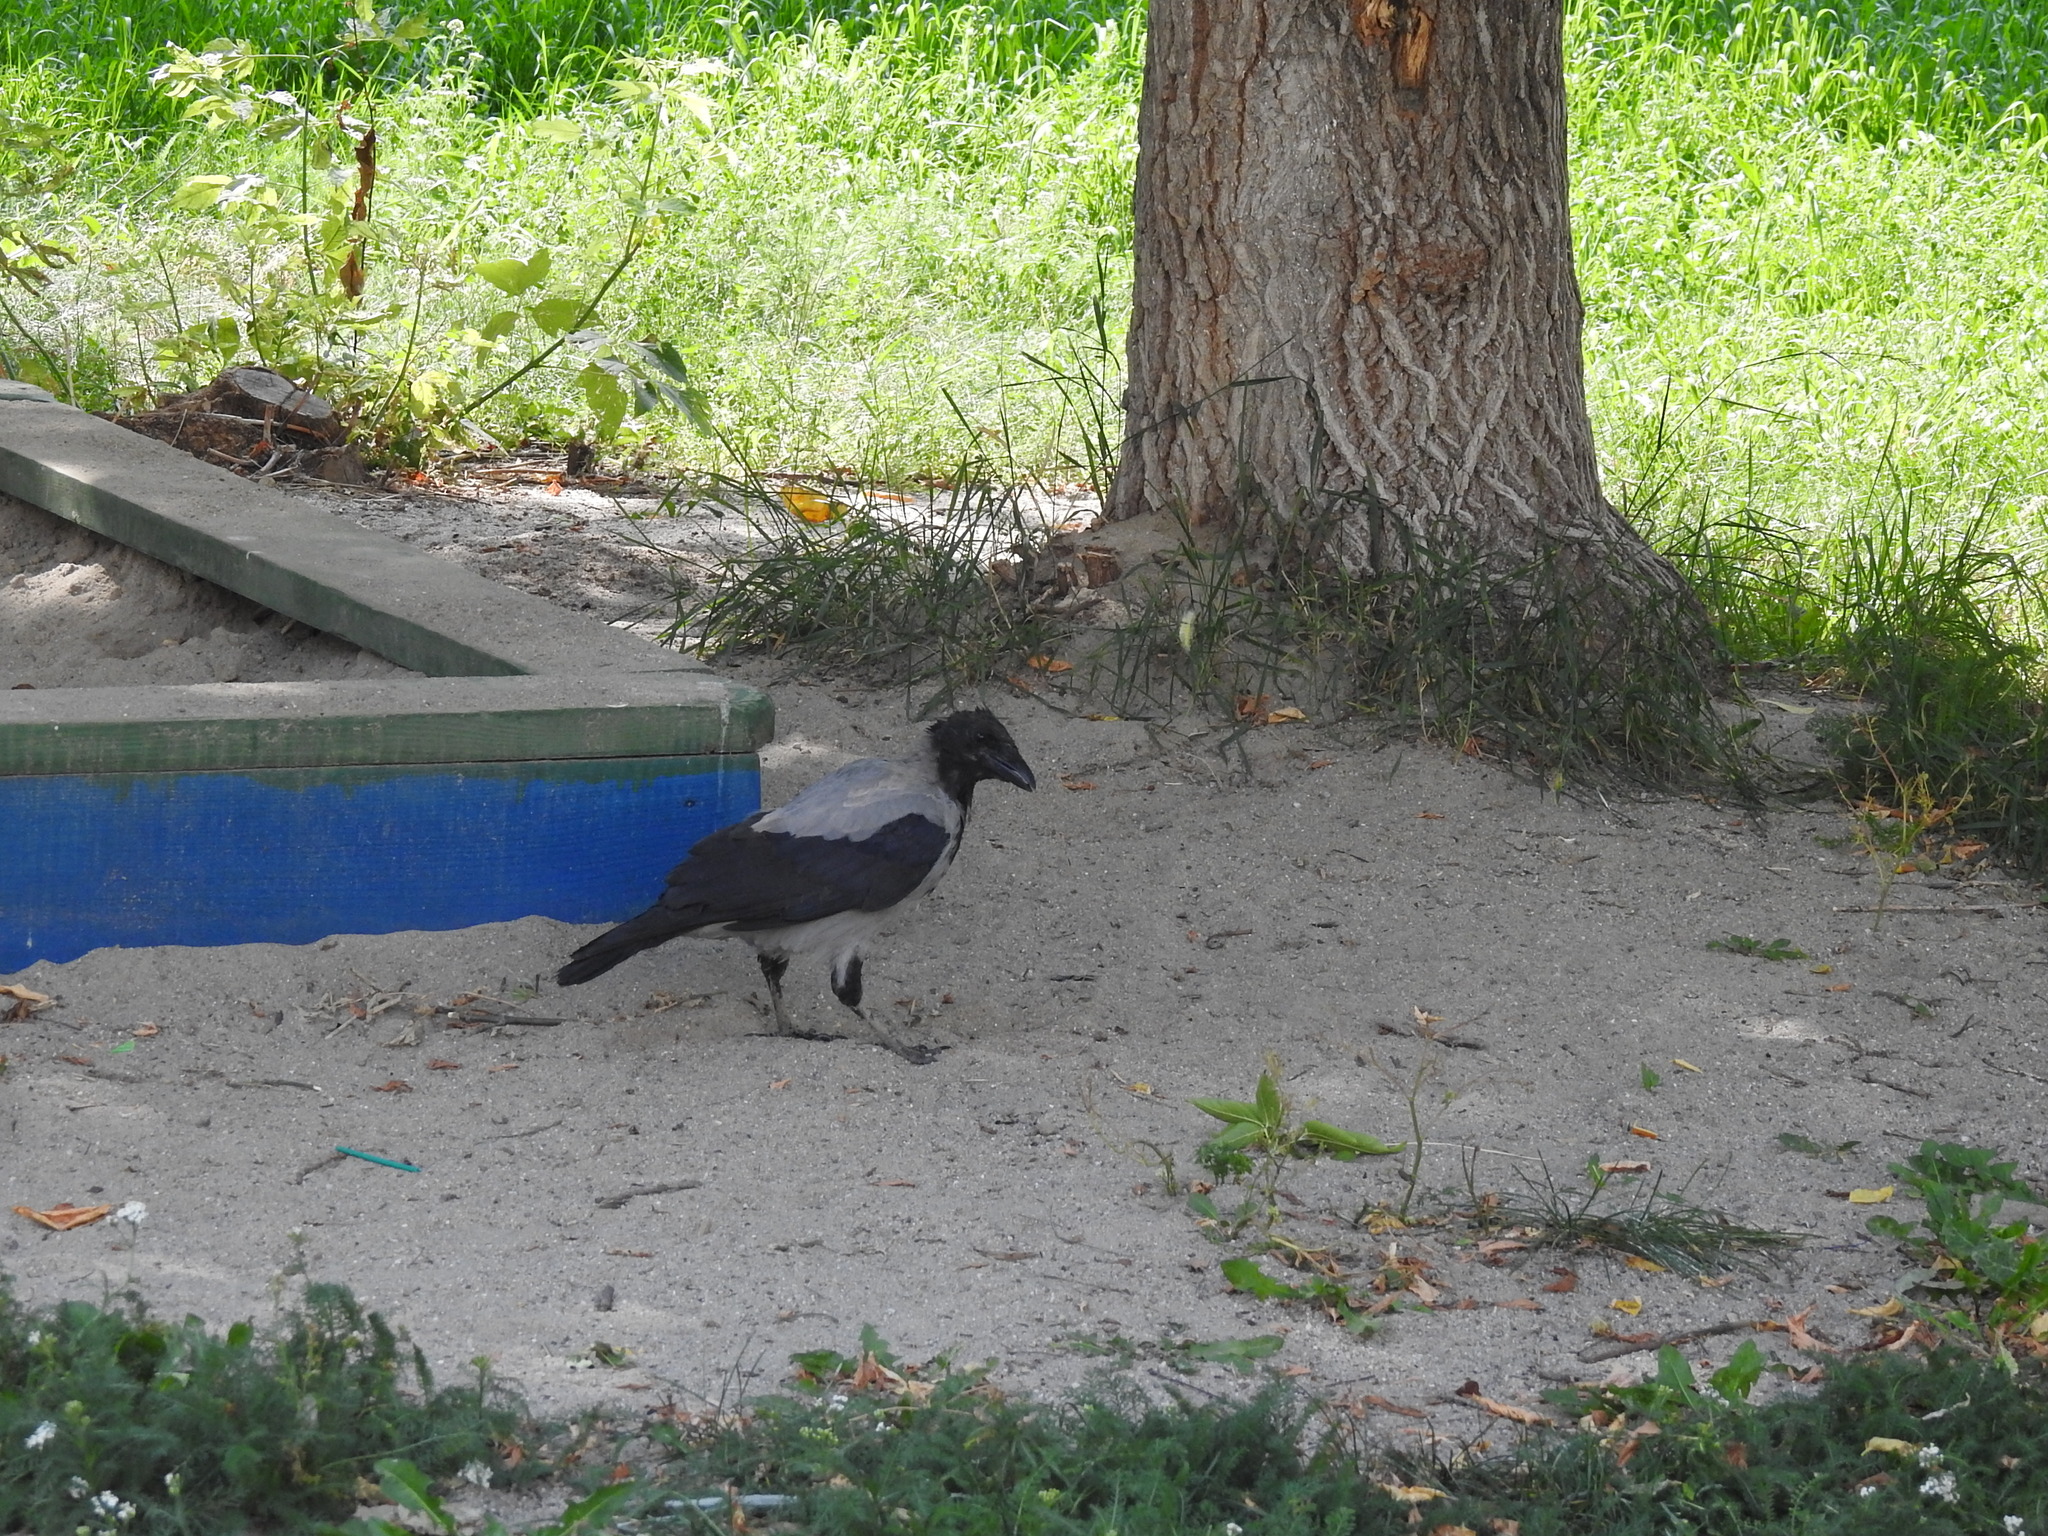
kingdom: Animalia
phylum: Chordata
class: Aves
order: Passeriformes
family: Corvidae
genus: Corvus
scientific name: Corvus cornix
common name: Hooded crow
